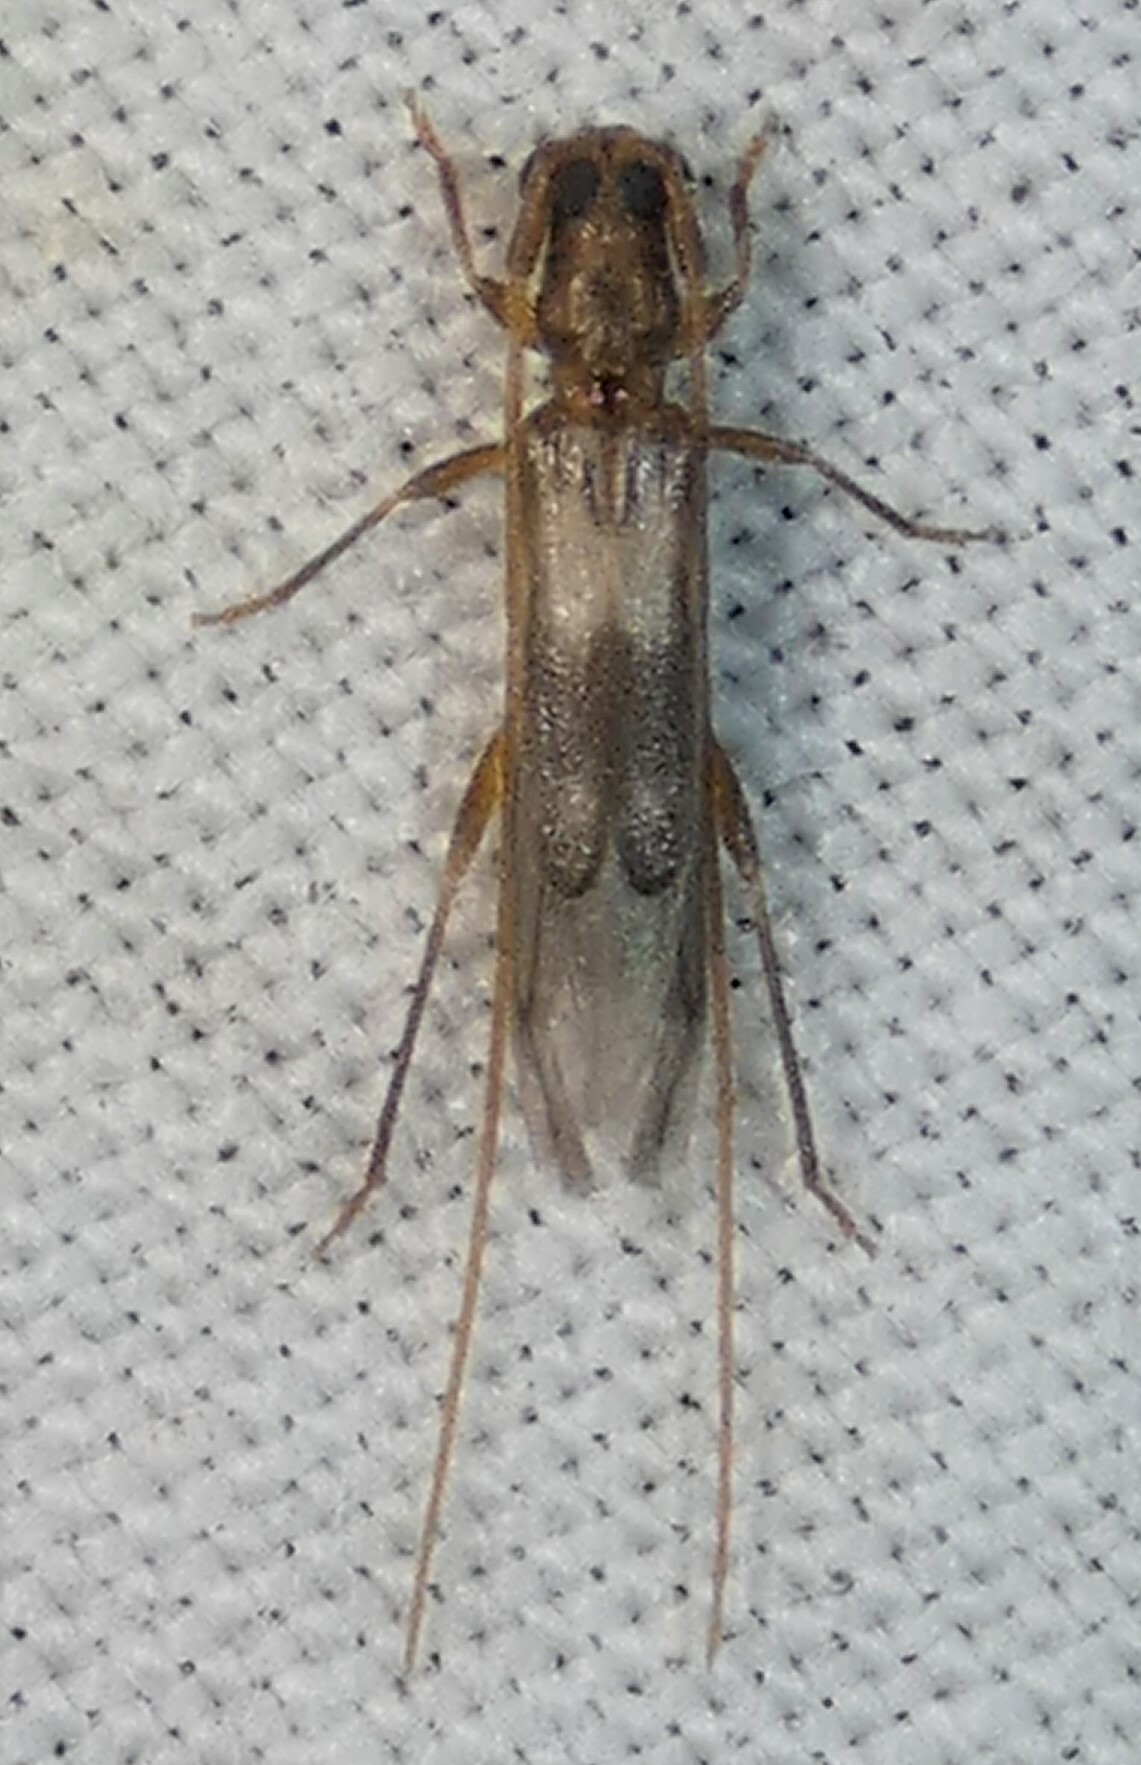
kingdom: Animalia
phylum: Arthropoda
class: Insecta
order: Coleoptera
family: Cerambycidae
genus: Methia
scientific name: Methia necydalea
